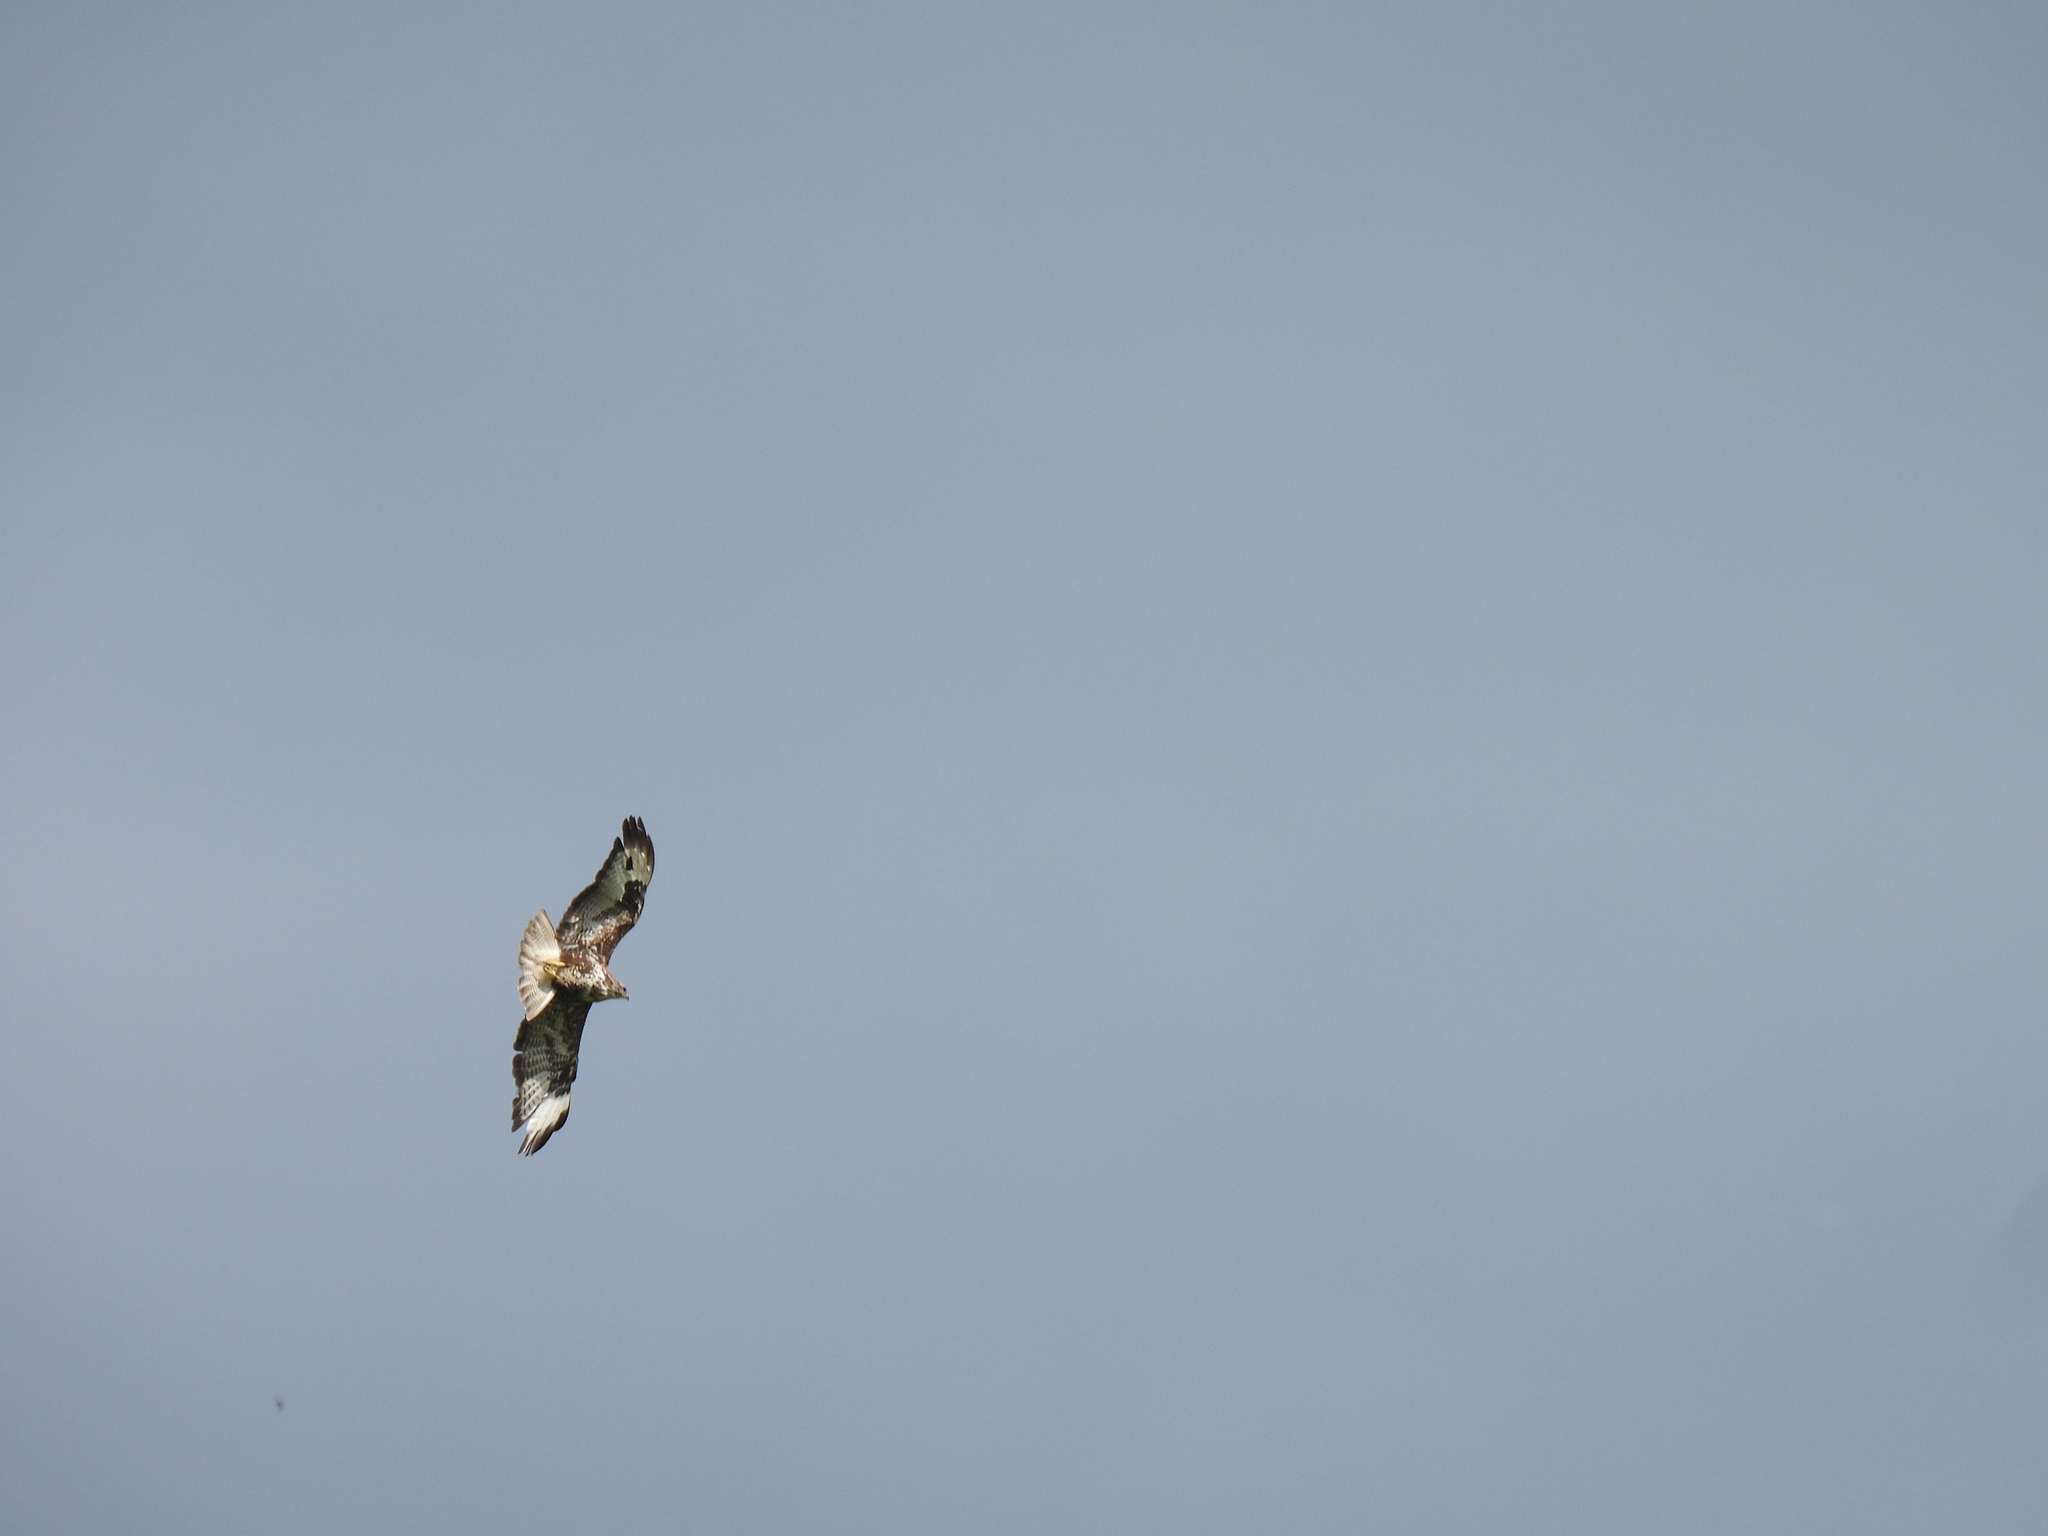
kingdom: Animalia
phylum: Chordata
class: Aves
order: Accipitriformes
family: Accipitridae
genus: Buteo
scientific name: Buteo buteo
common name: Common buzzard
